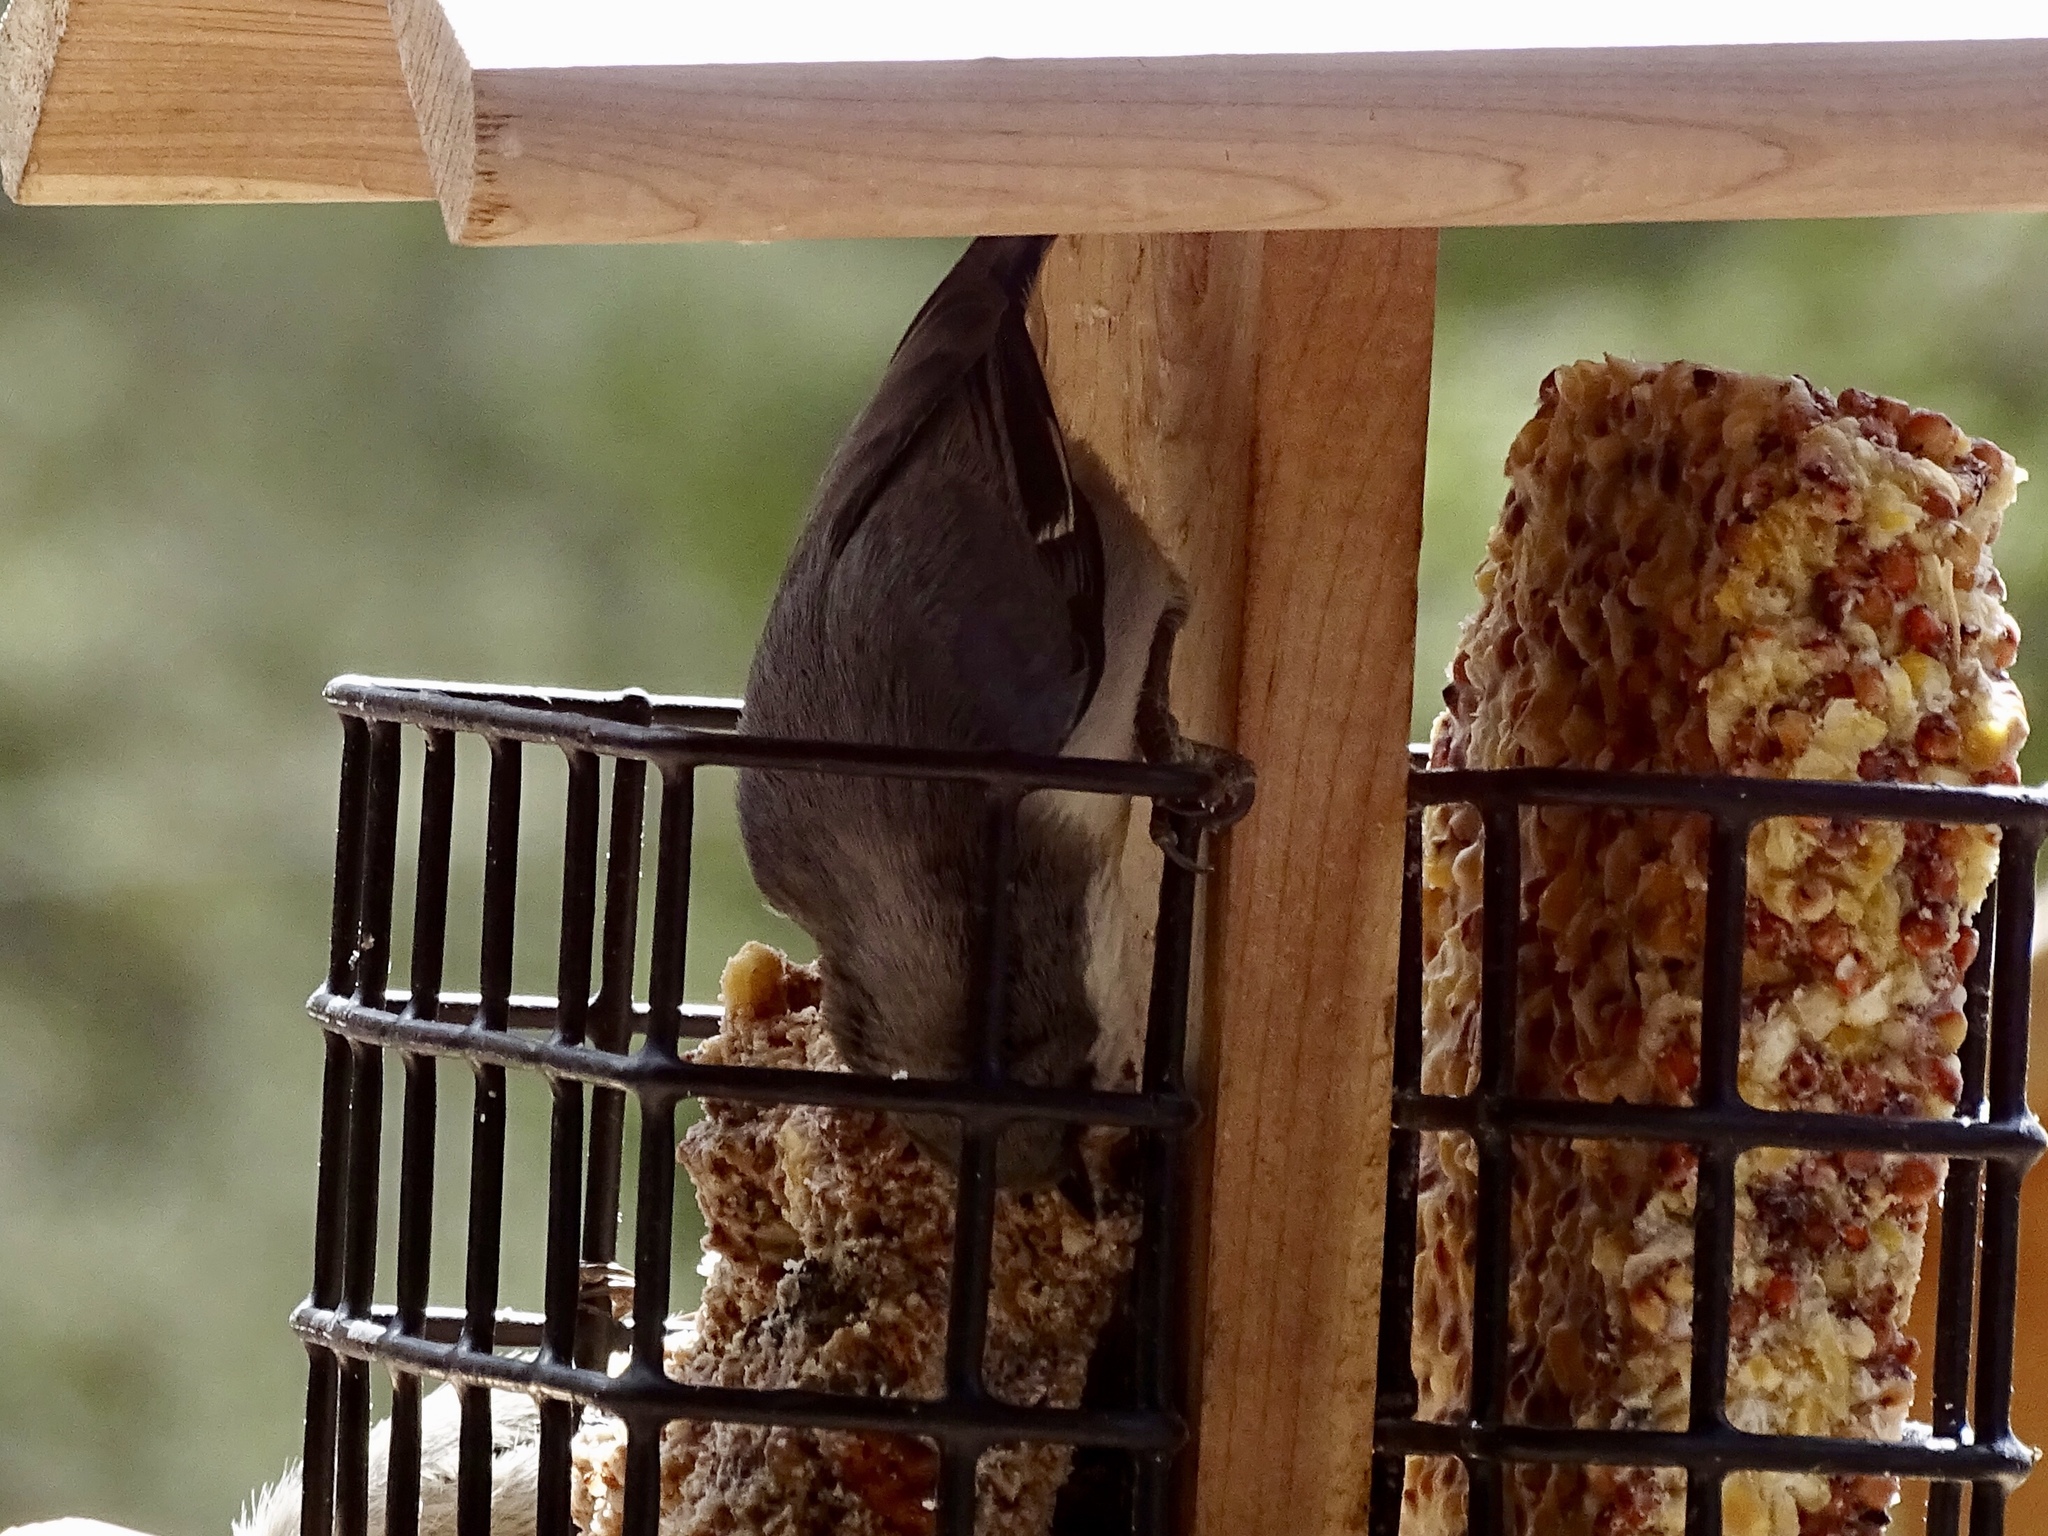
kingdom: Animalia
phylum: Chordata
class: Aves
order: Passeriformes
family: Sittidae
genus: Sitta
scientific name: Sitta pygmaea
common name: Pygmy nuthatch
